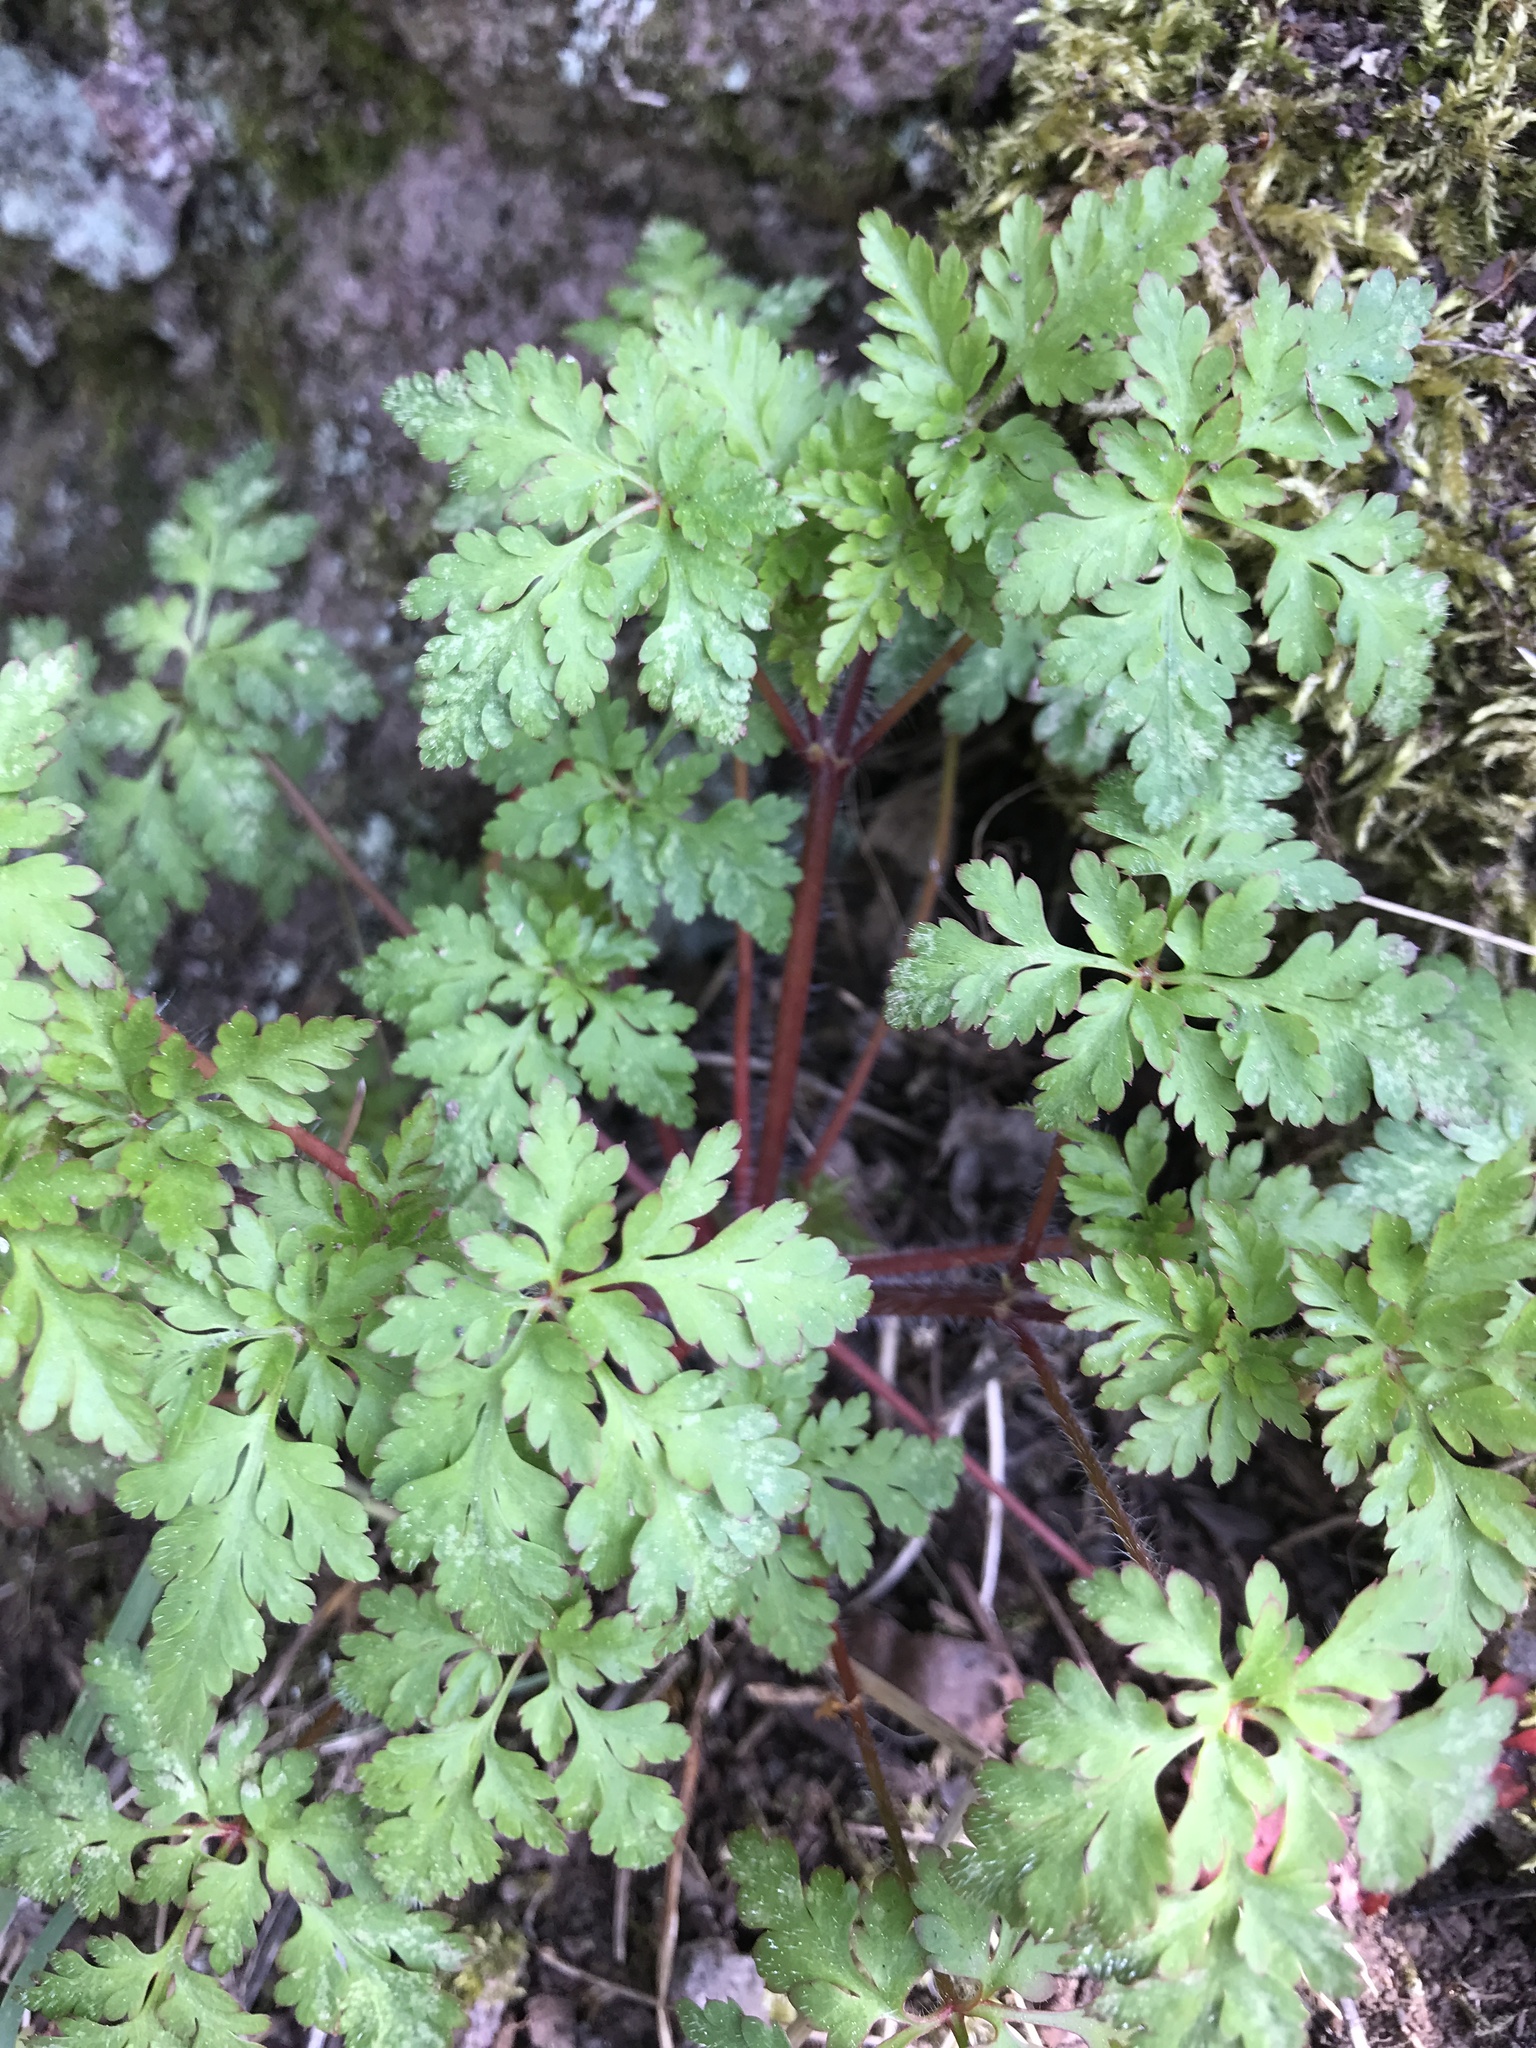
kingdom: Plantae
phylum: Tracheophyta
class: Magnoliopsida
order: Geraniales
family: Geraniaceae
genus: Geranium
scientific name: Geranium robertianum
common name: Herb-robert
